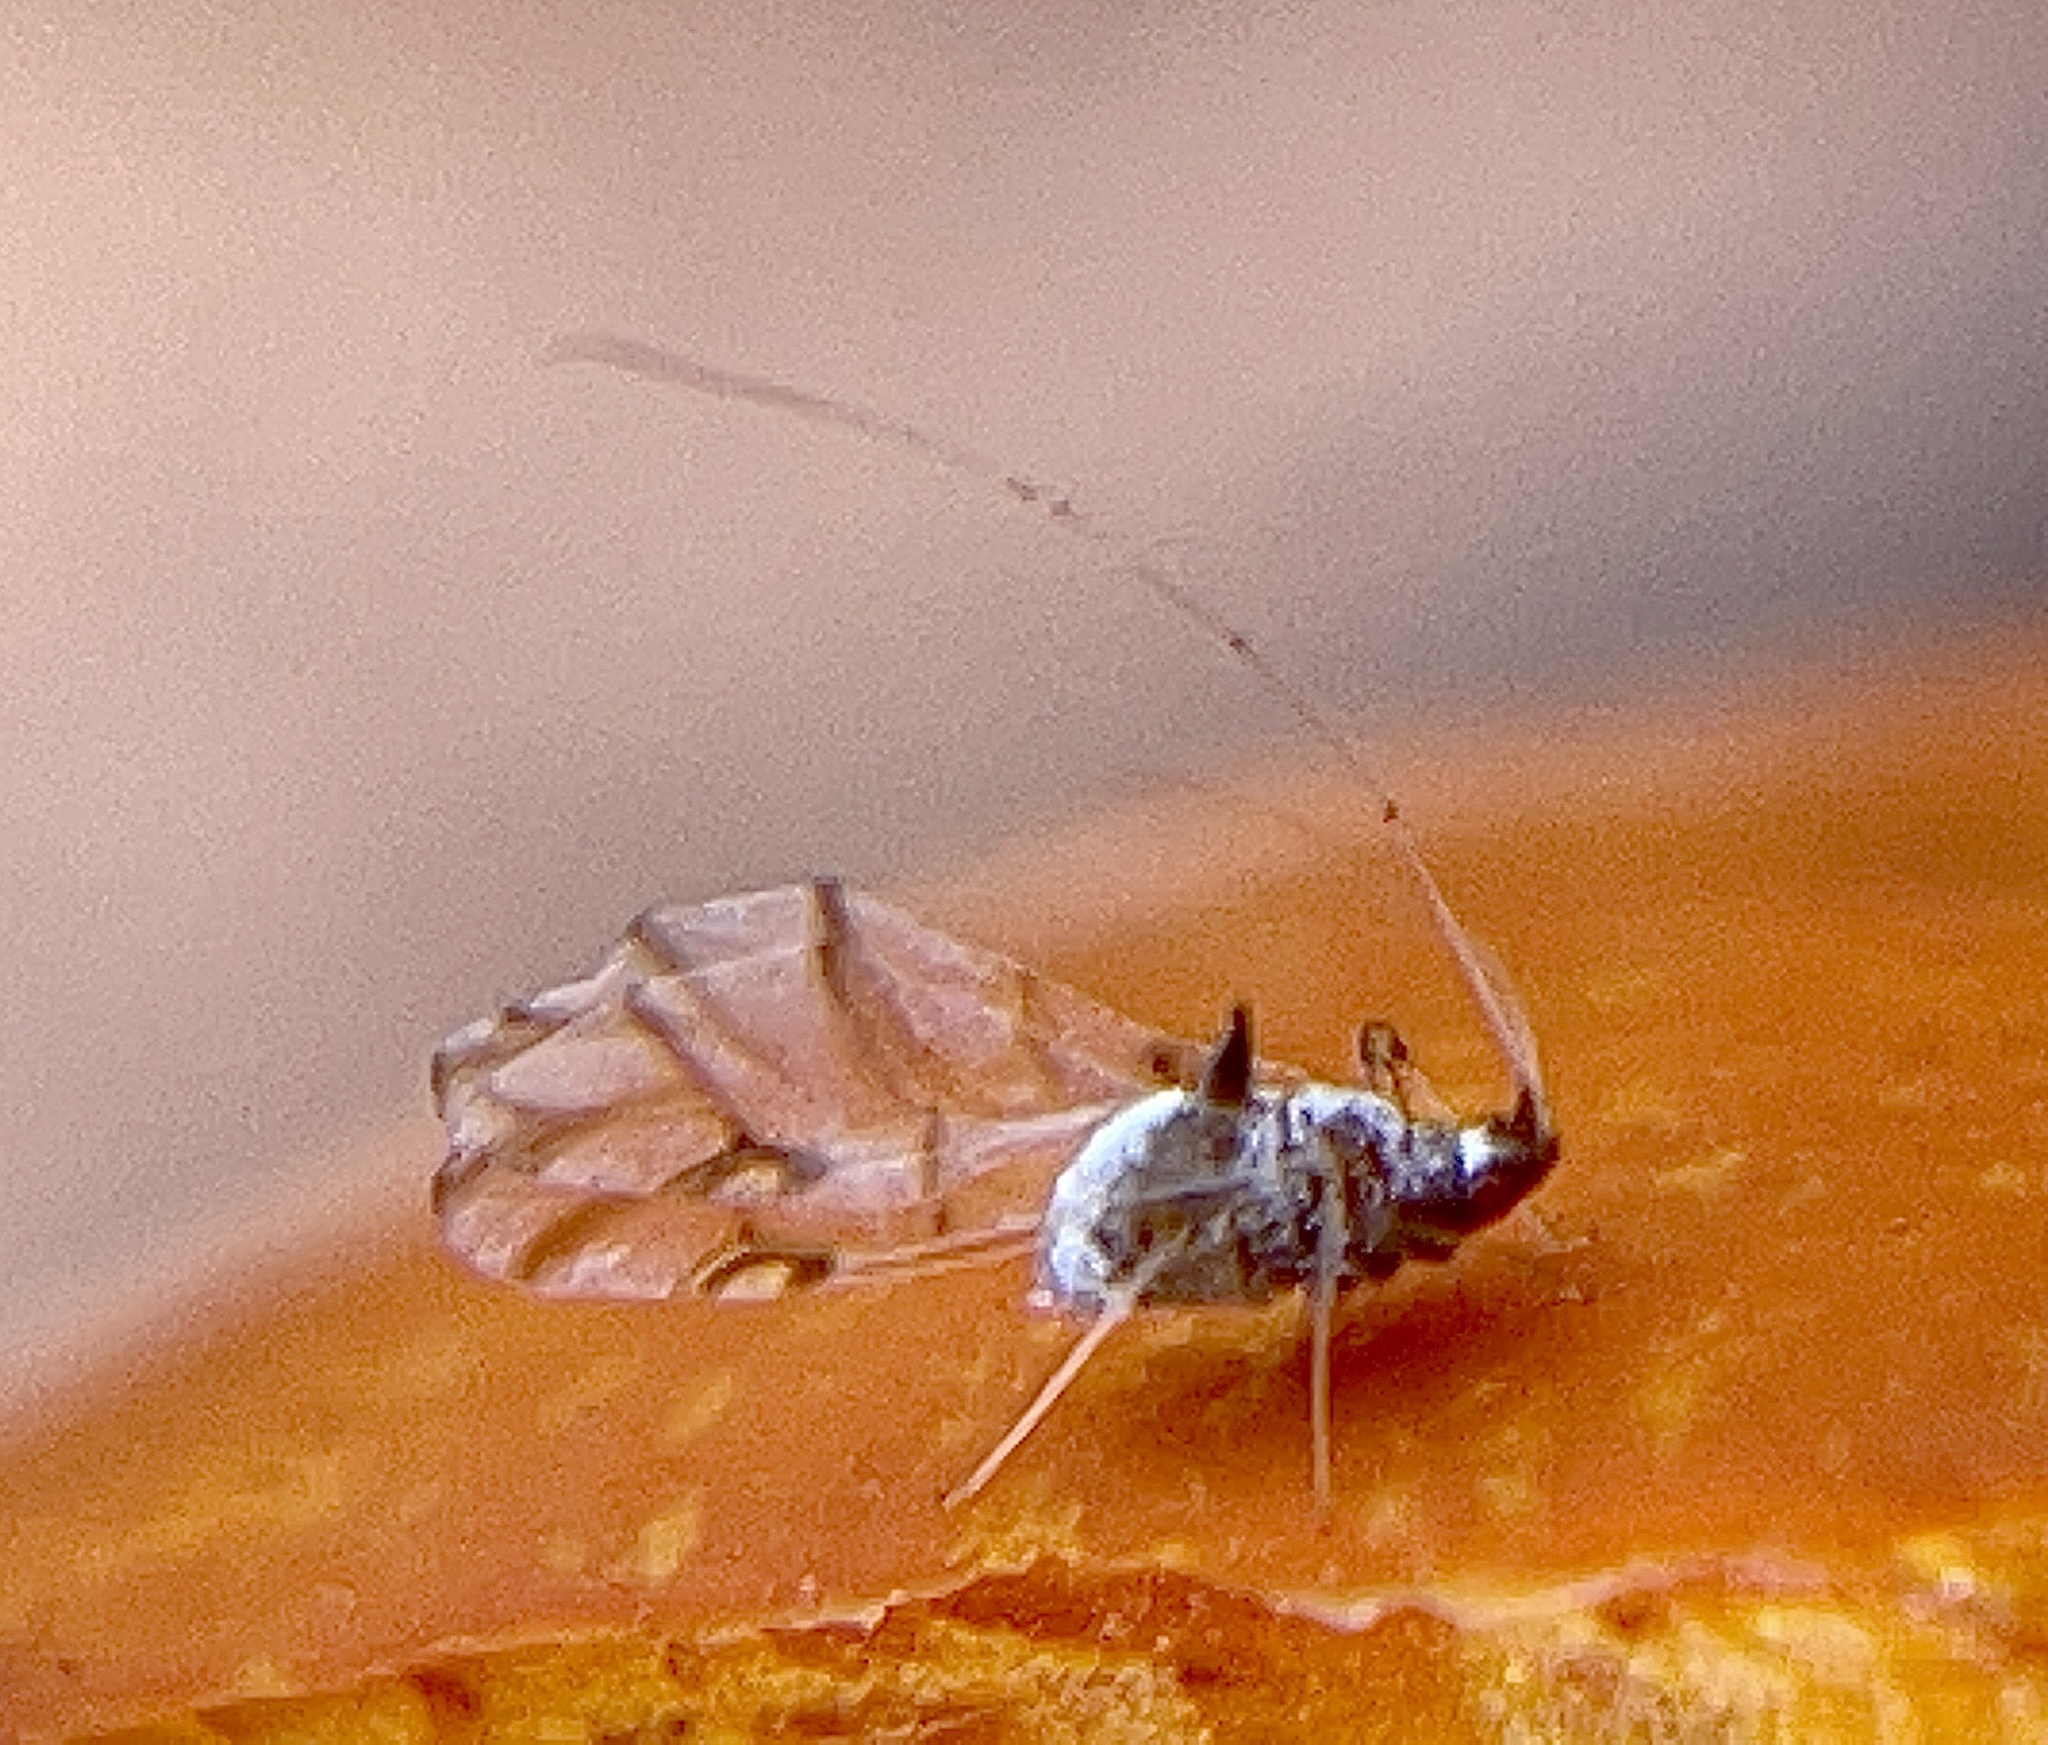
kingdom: Animalia
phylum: Arthropoda
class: Insecta
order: Hemiptera
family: Aphididae
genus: Drepanaphis
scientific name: Drepanaphis keshenae
